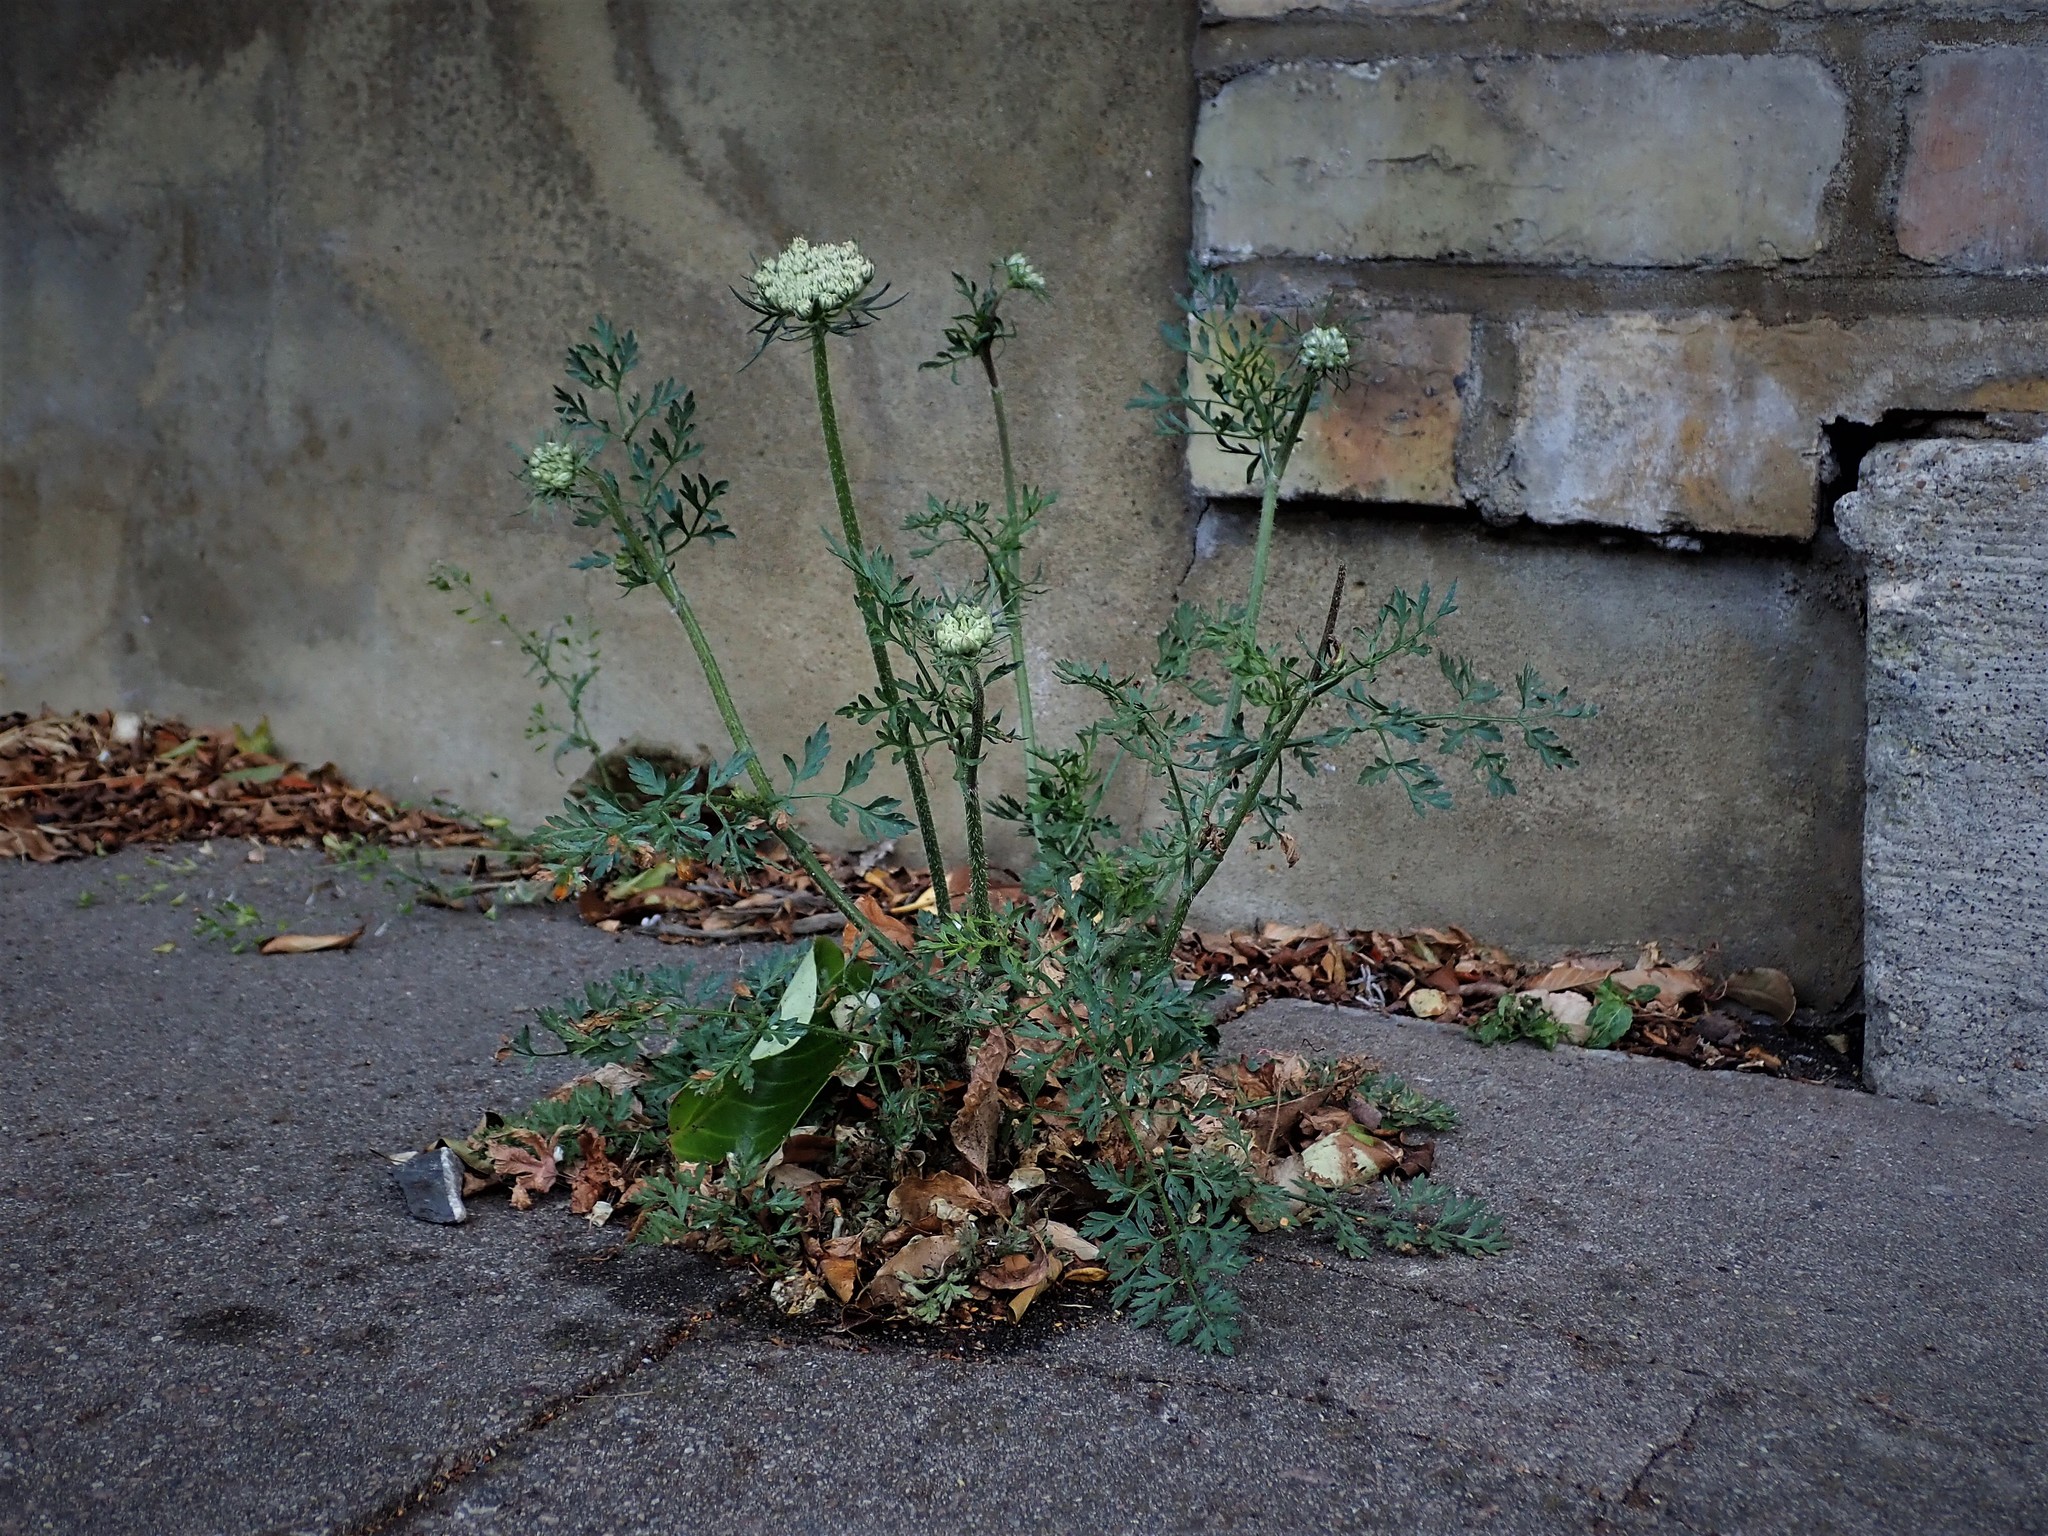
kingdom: Plantae
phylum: Tracheophyta
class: Magnoliopsida
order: Apiales
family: Apiaceae
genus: Daucus
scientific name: Daucus carota
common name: Wild carrot
